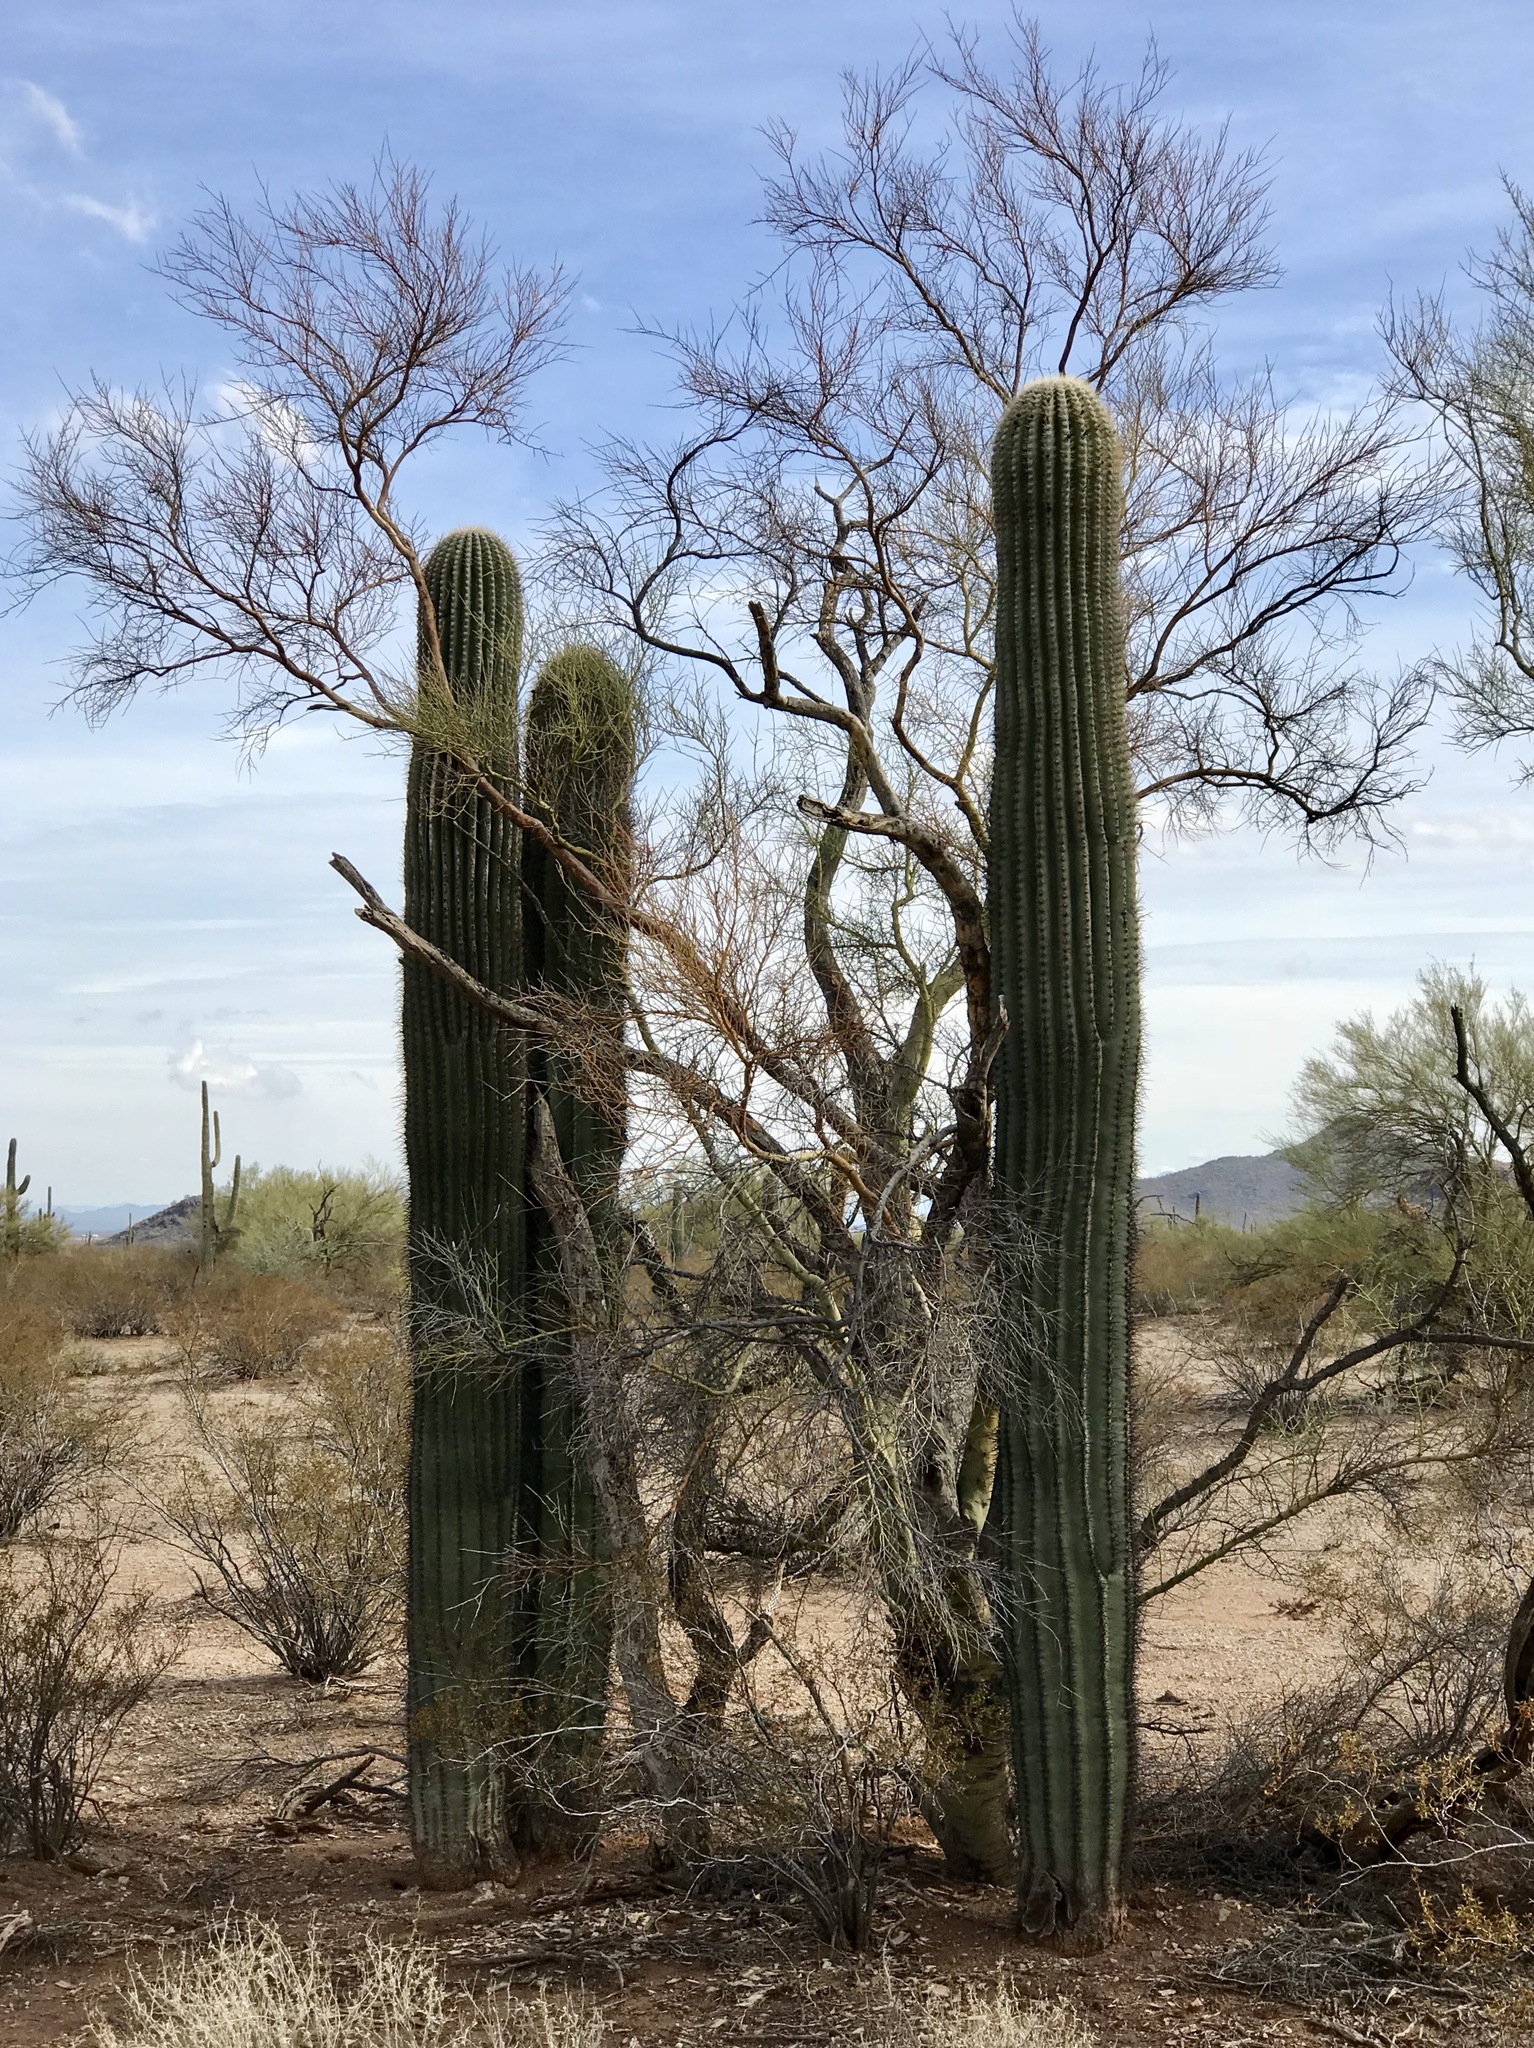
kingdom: Plantae
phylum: Tracheophyta
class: Magnoliopsida
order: Caryophyllales
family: Cactaceae
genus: Carnegiea
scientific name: Carnegiea gigantea
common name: Saguaro
